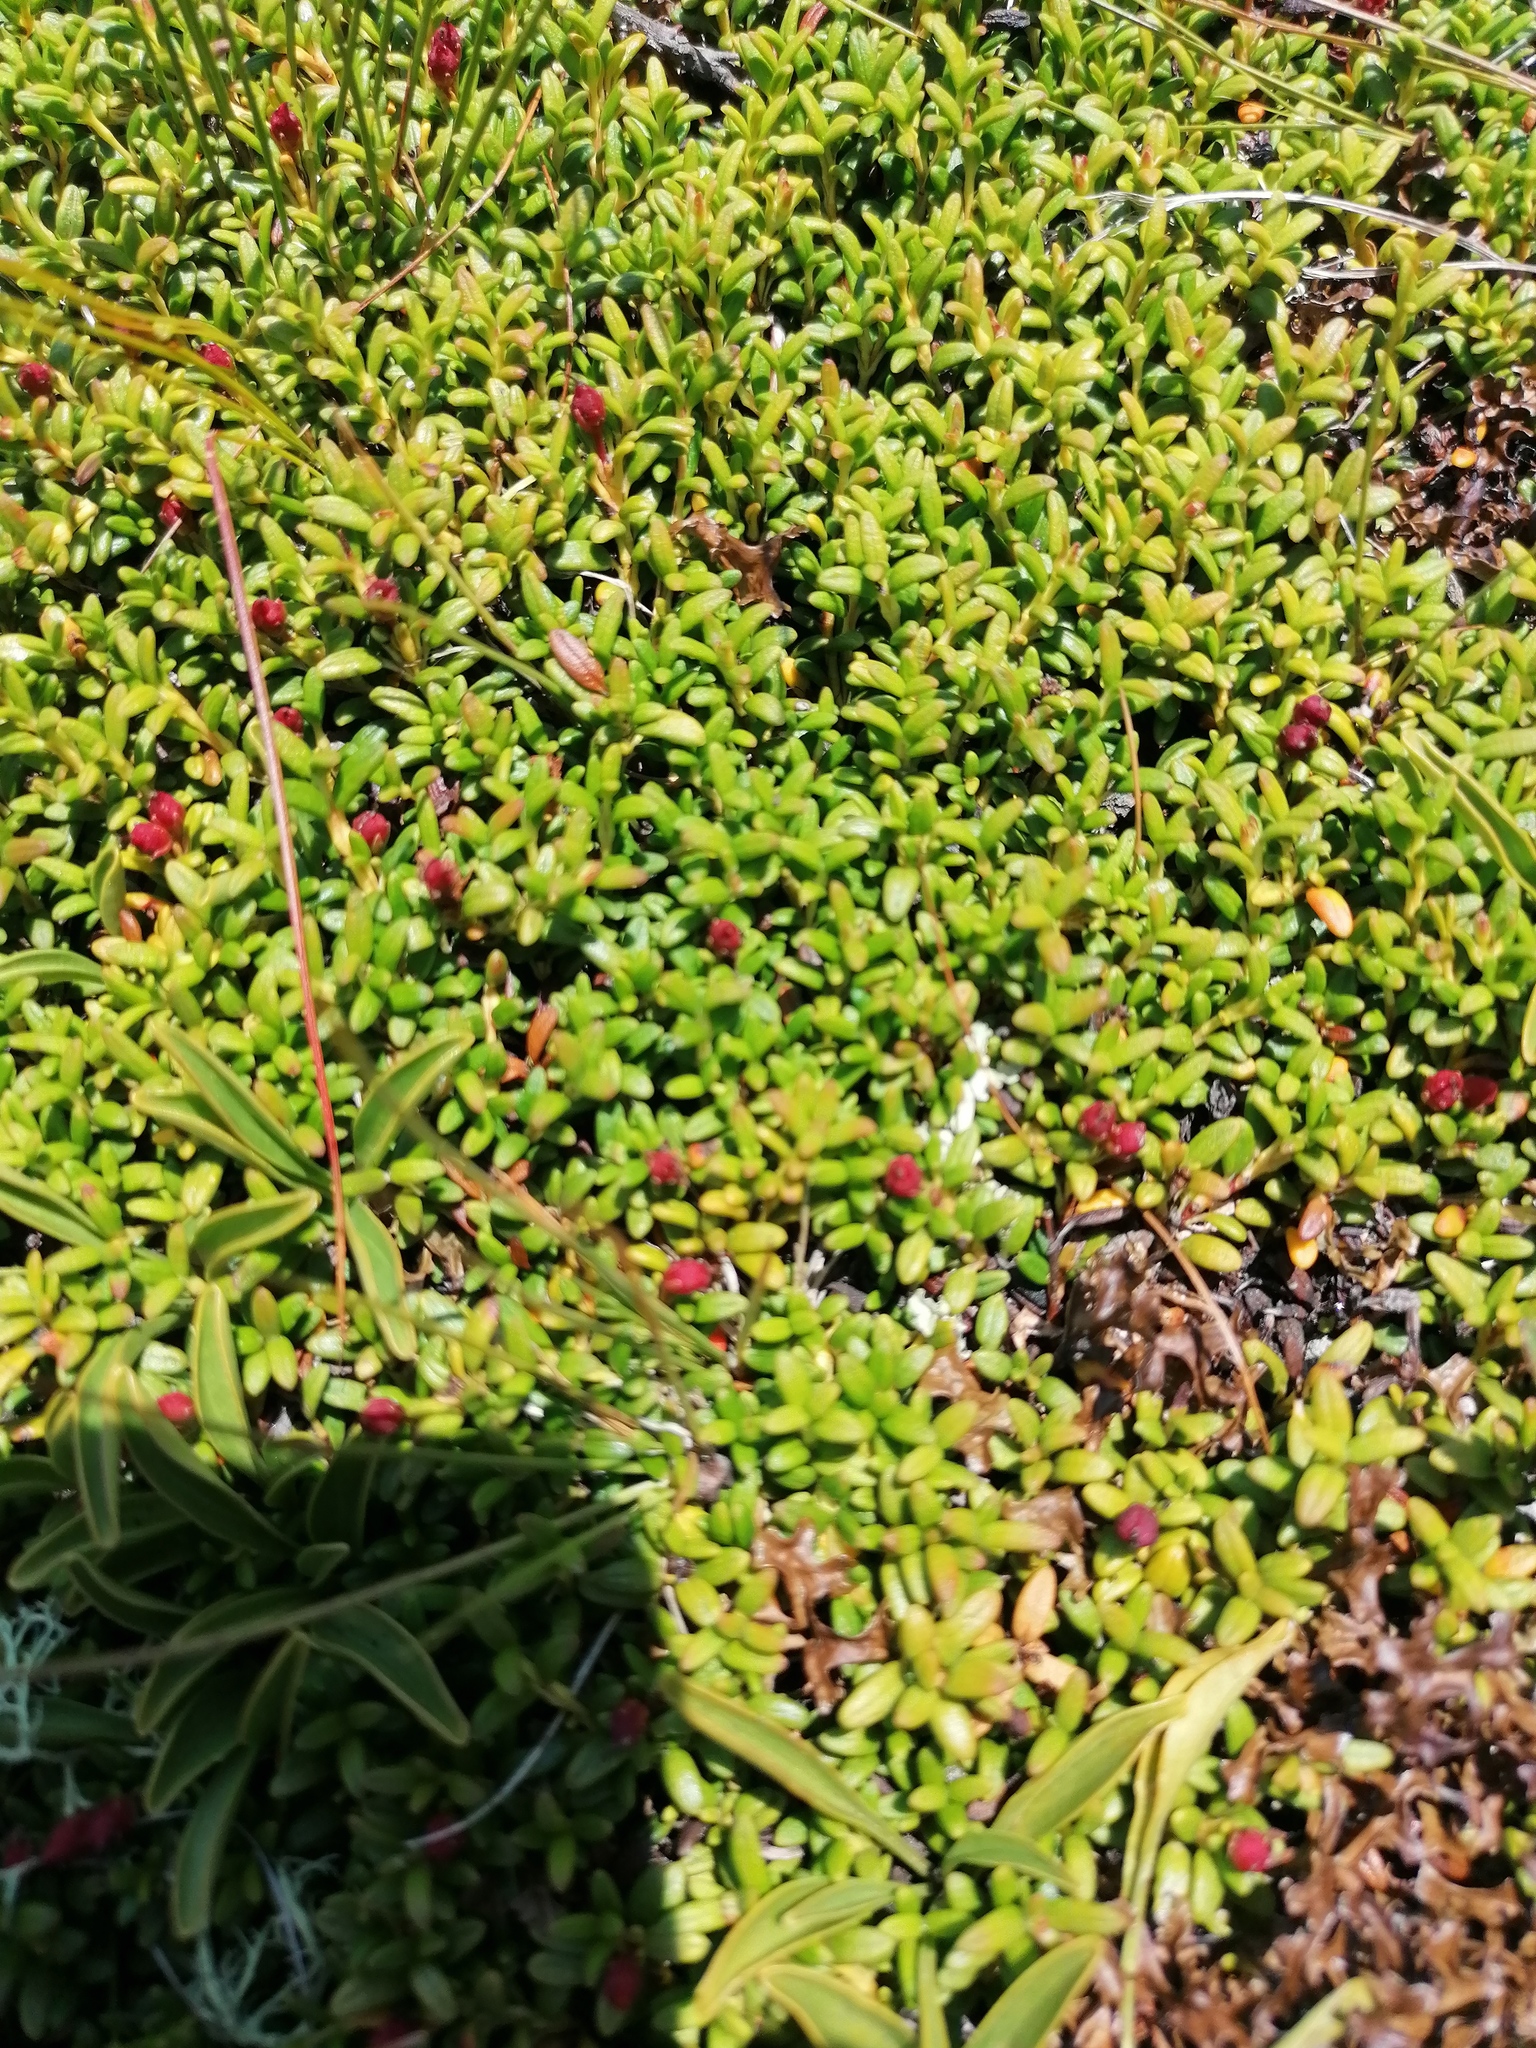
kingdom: Plantae
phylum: Tracheophyta
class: Magnoliopsida
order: Ericales
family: Ericaceae
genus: Kalmia
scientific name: Kalmia procumbens
